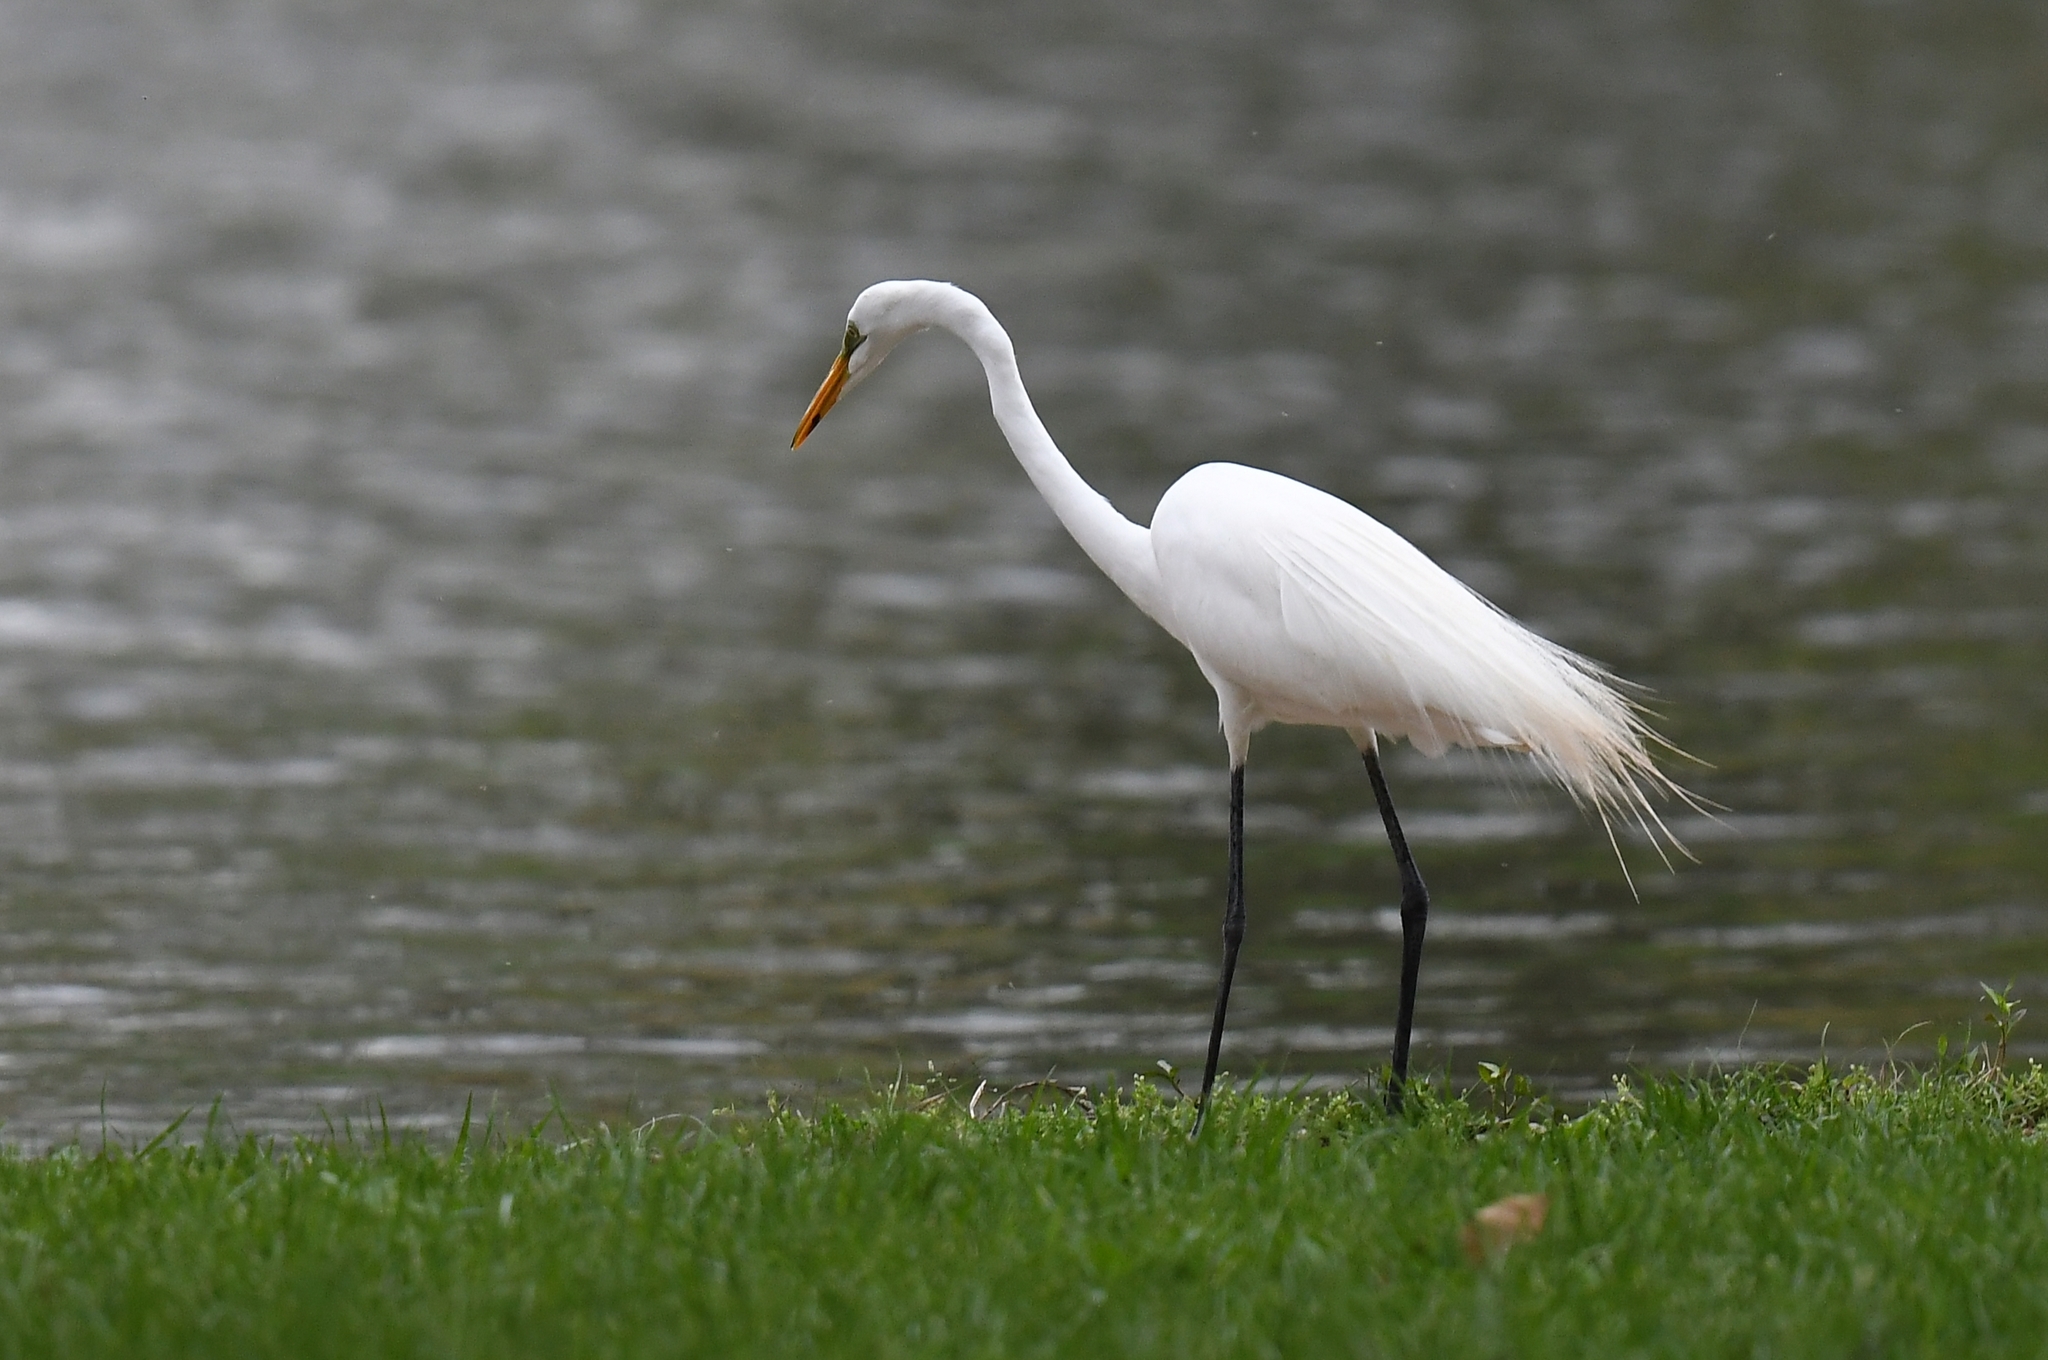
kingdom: Animalia
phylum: Chordata
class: Aves
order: Pelecaniformes
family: Ardeidae
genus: Ardea
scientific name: Ardea alba
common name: Great egret
